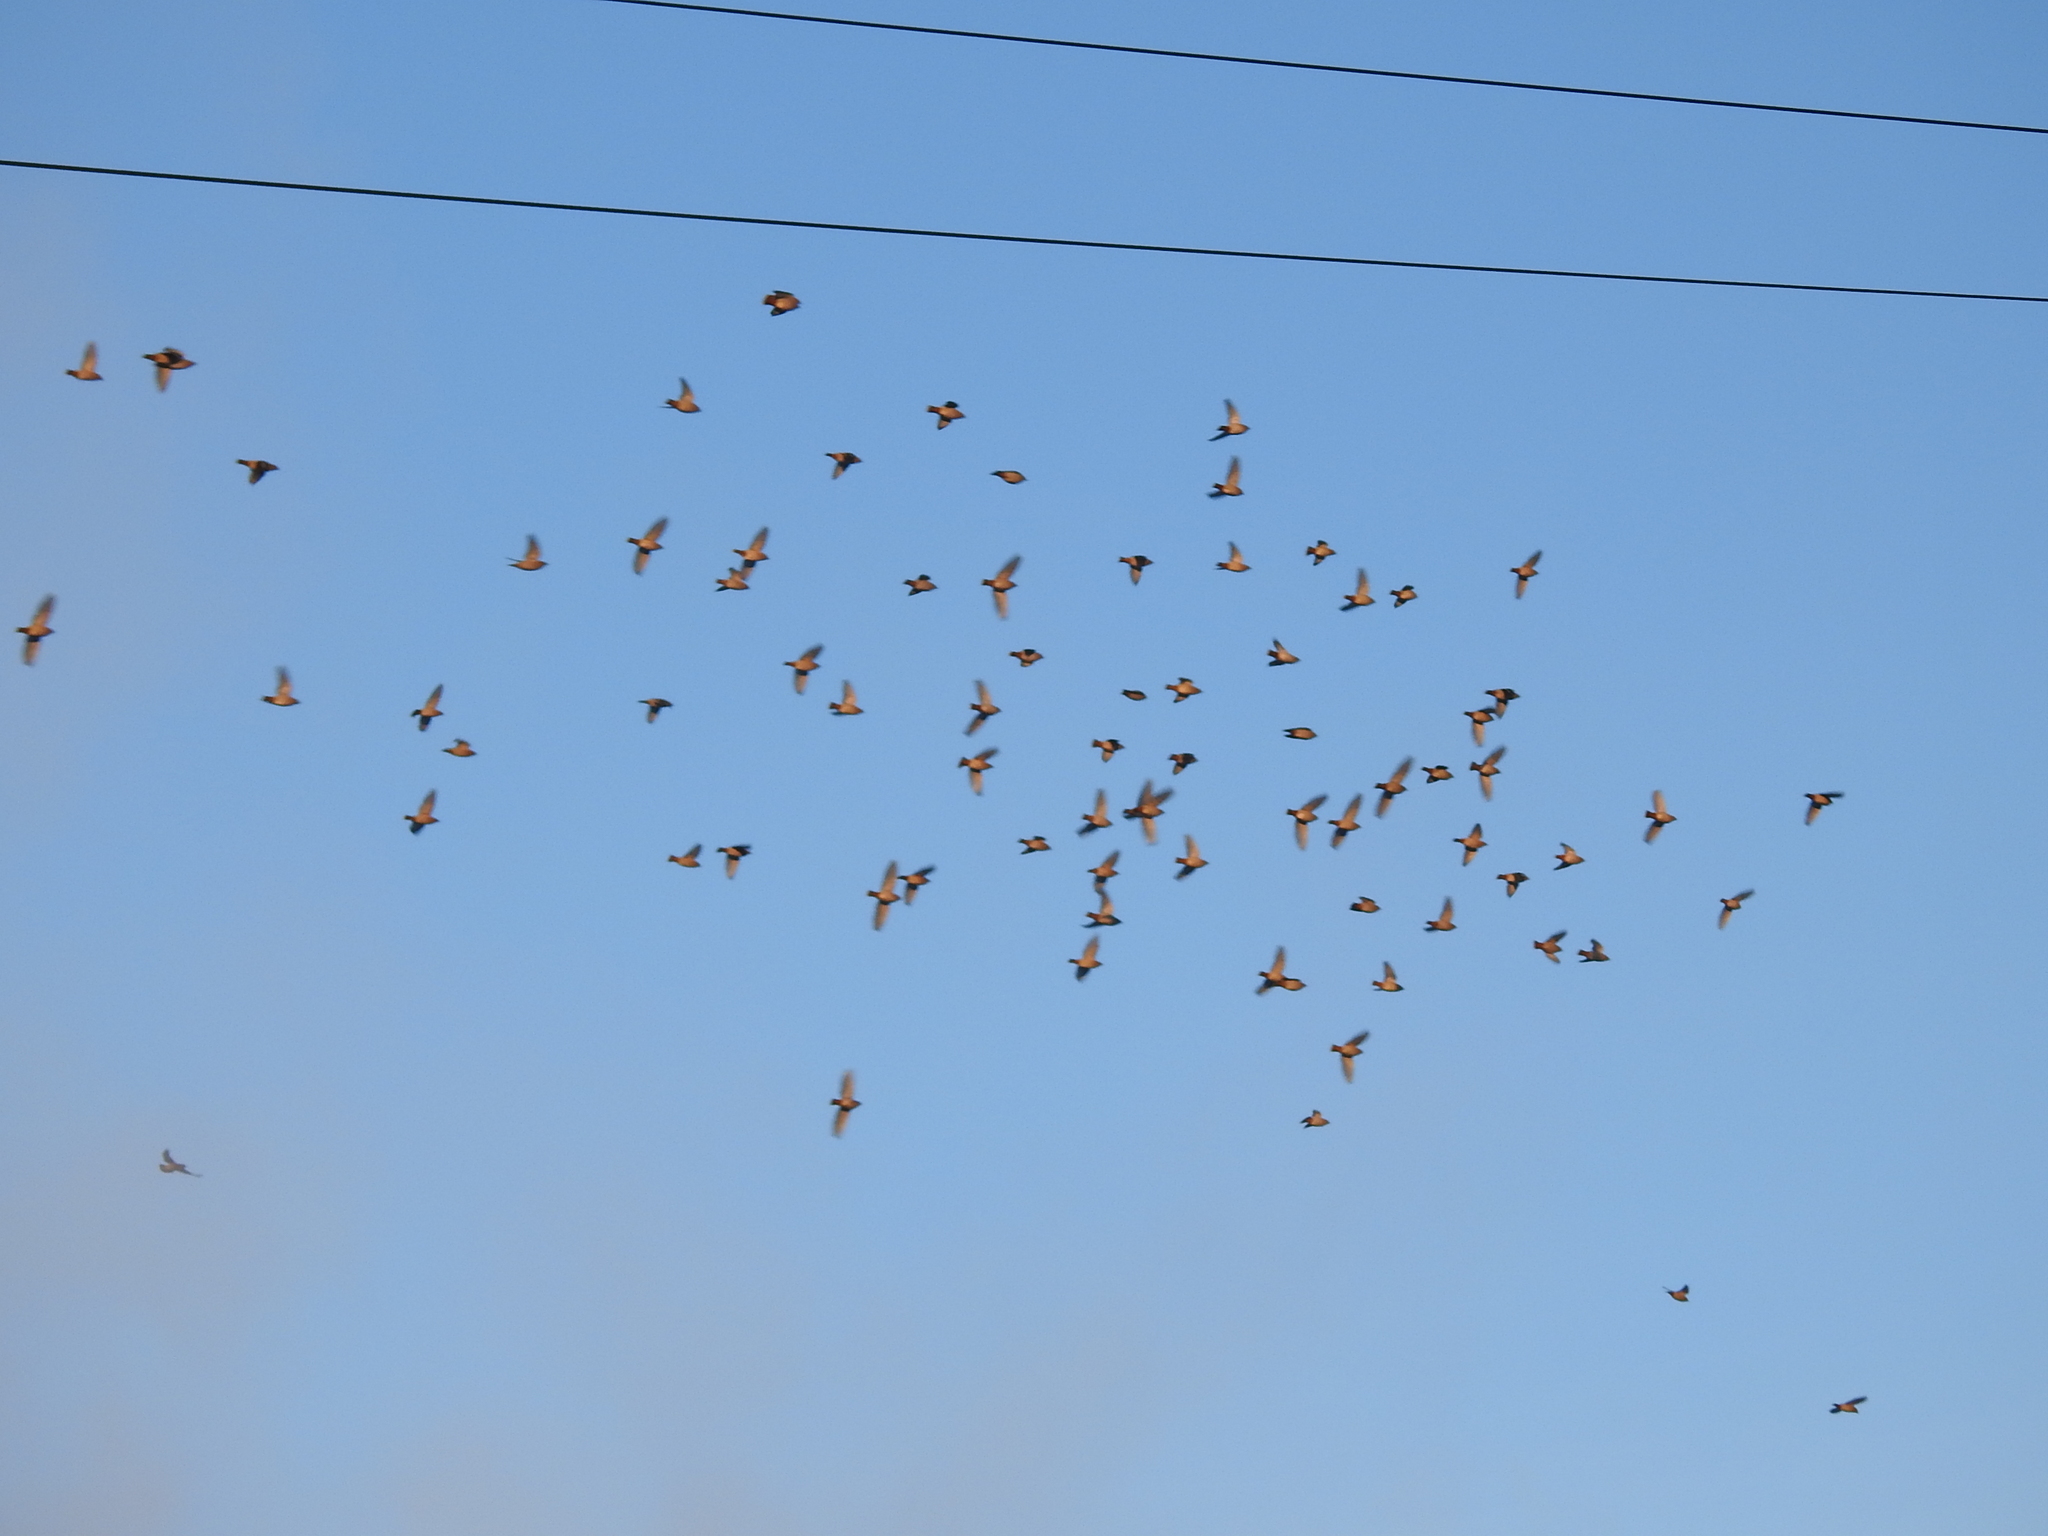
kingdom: Animalia
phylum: Chordata
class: Aves
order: Passeriformes
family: Bombycillidae
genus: Bombycilla
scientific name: Bombycilla garrulus
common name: Bohemian waxwing
